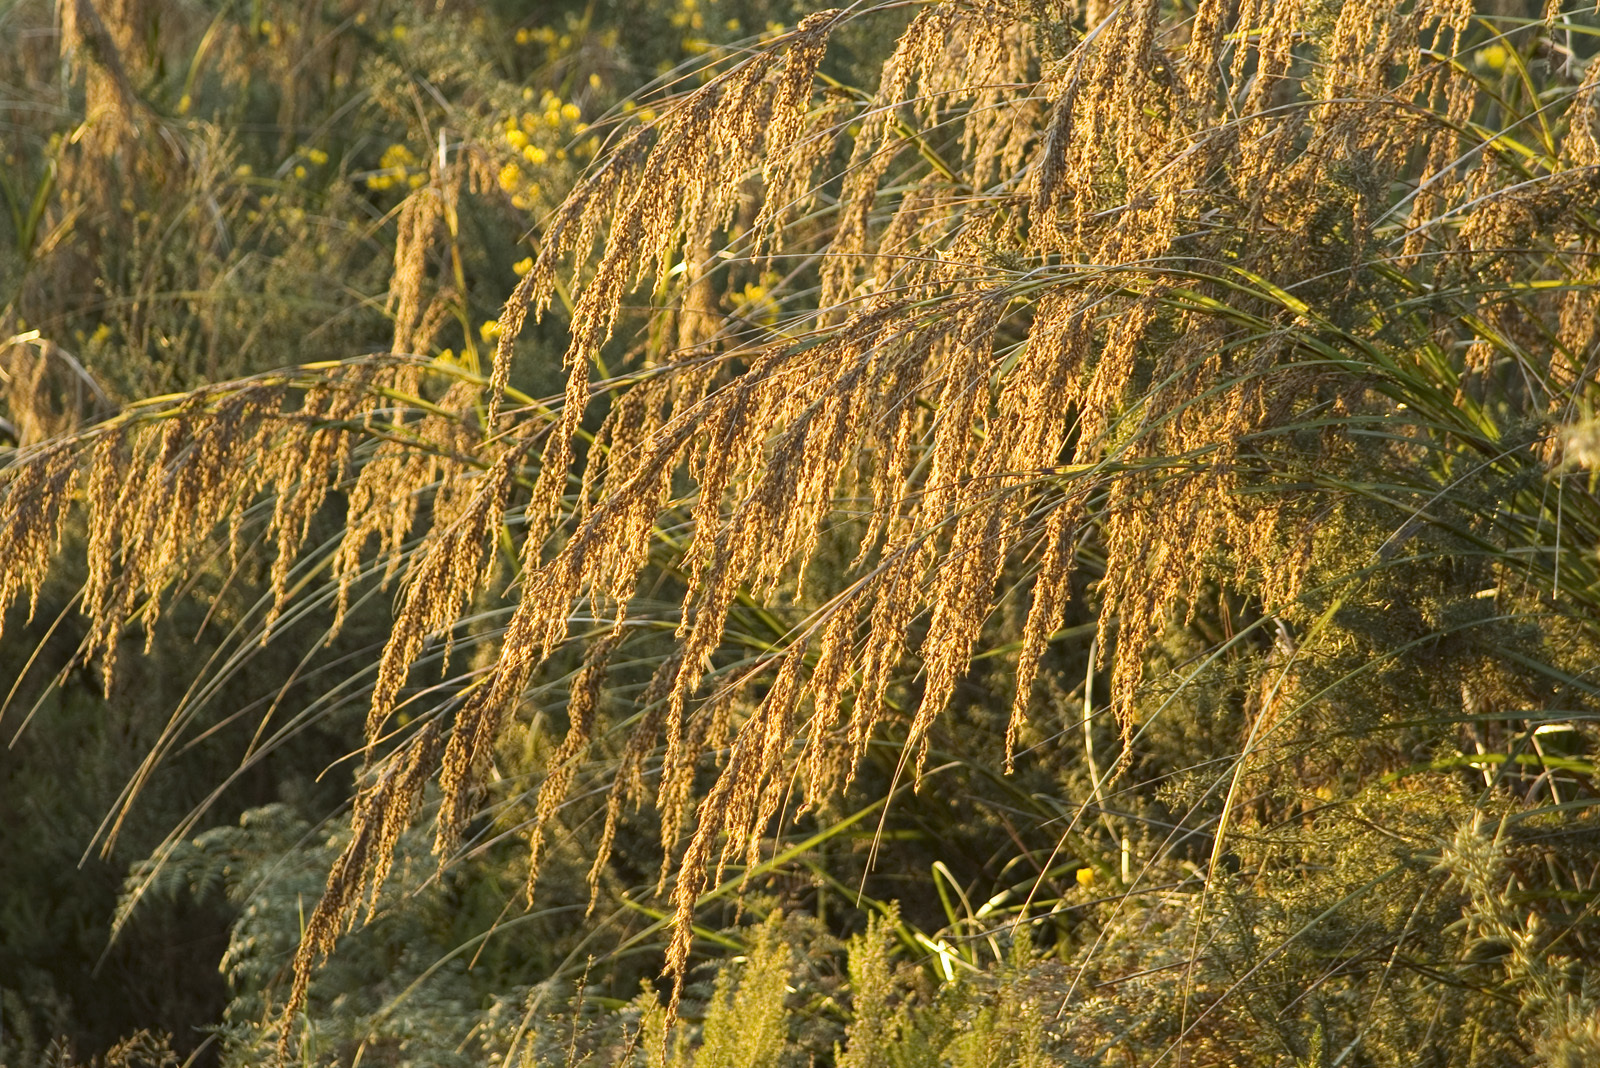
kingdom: Plantae
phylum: Tracheophyta
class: Liliopsida
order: Poales
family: Cyperaceae
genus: Gahnia
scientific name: Gahnia setifolia
